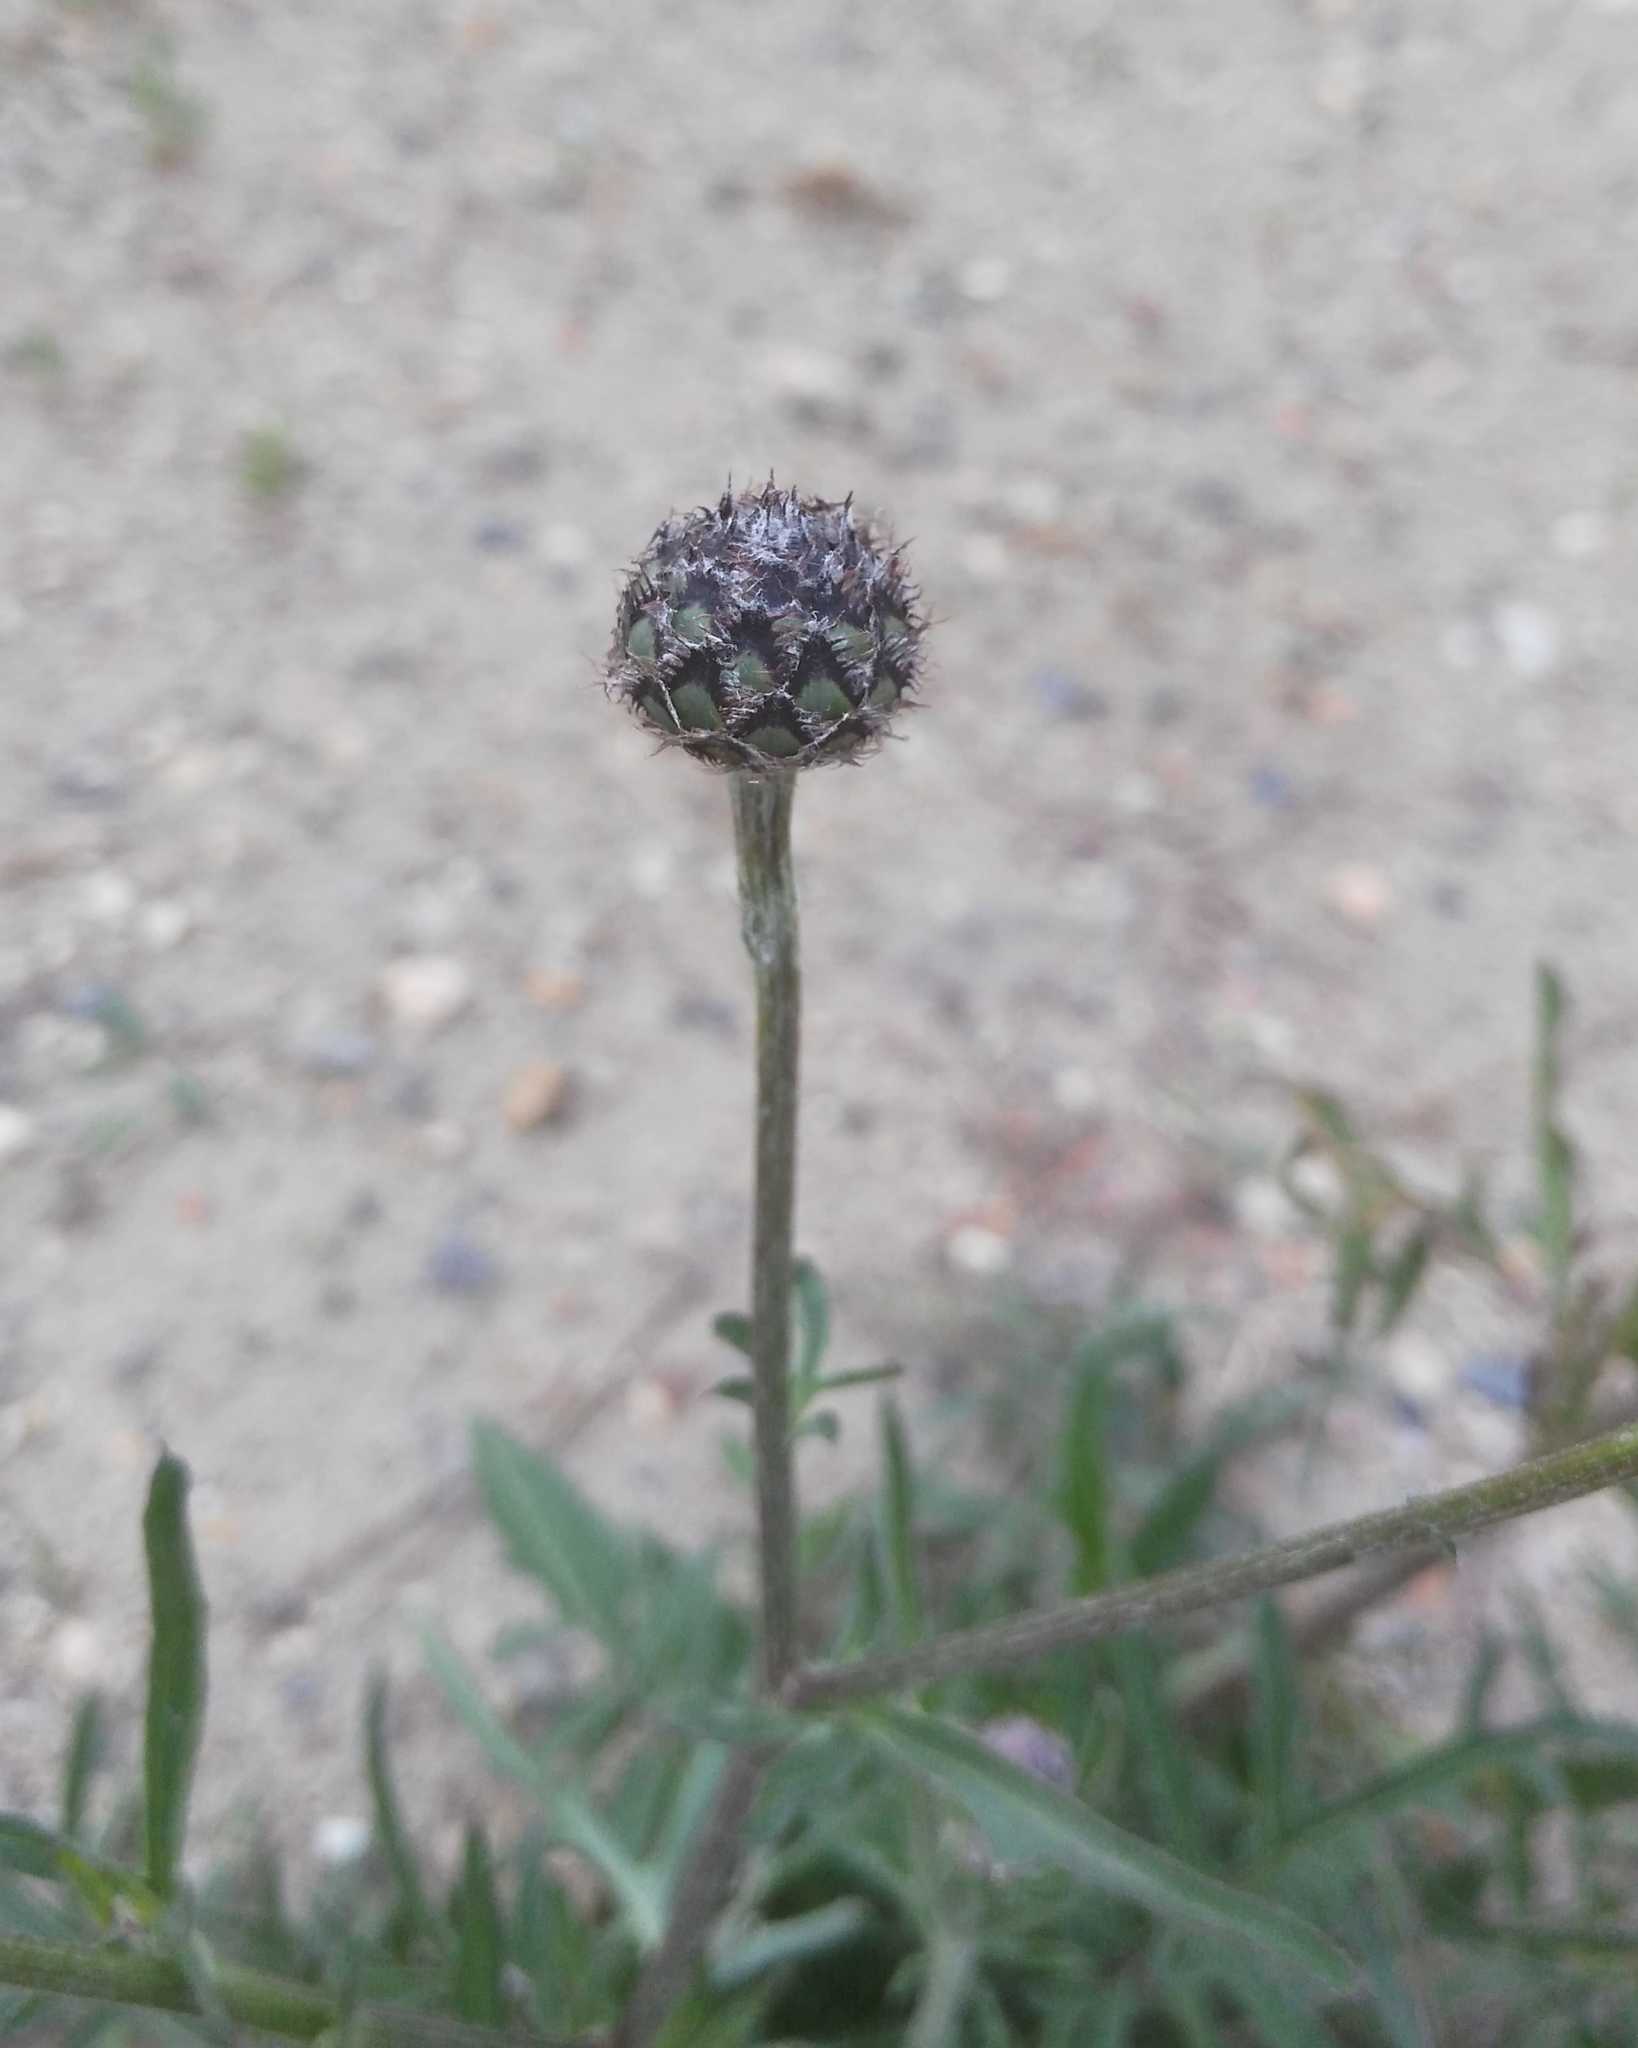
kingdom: Plantae
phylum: Tracheophyta
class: Magnoliopsida
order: Asterales
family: Asteraceae
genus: Centaurea
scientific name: Centaurea scabiosa
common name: Greater knapweed
